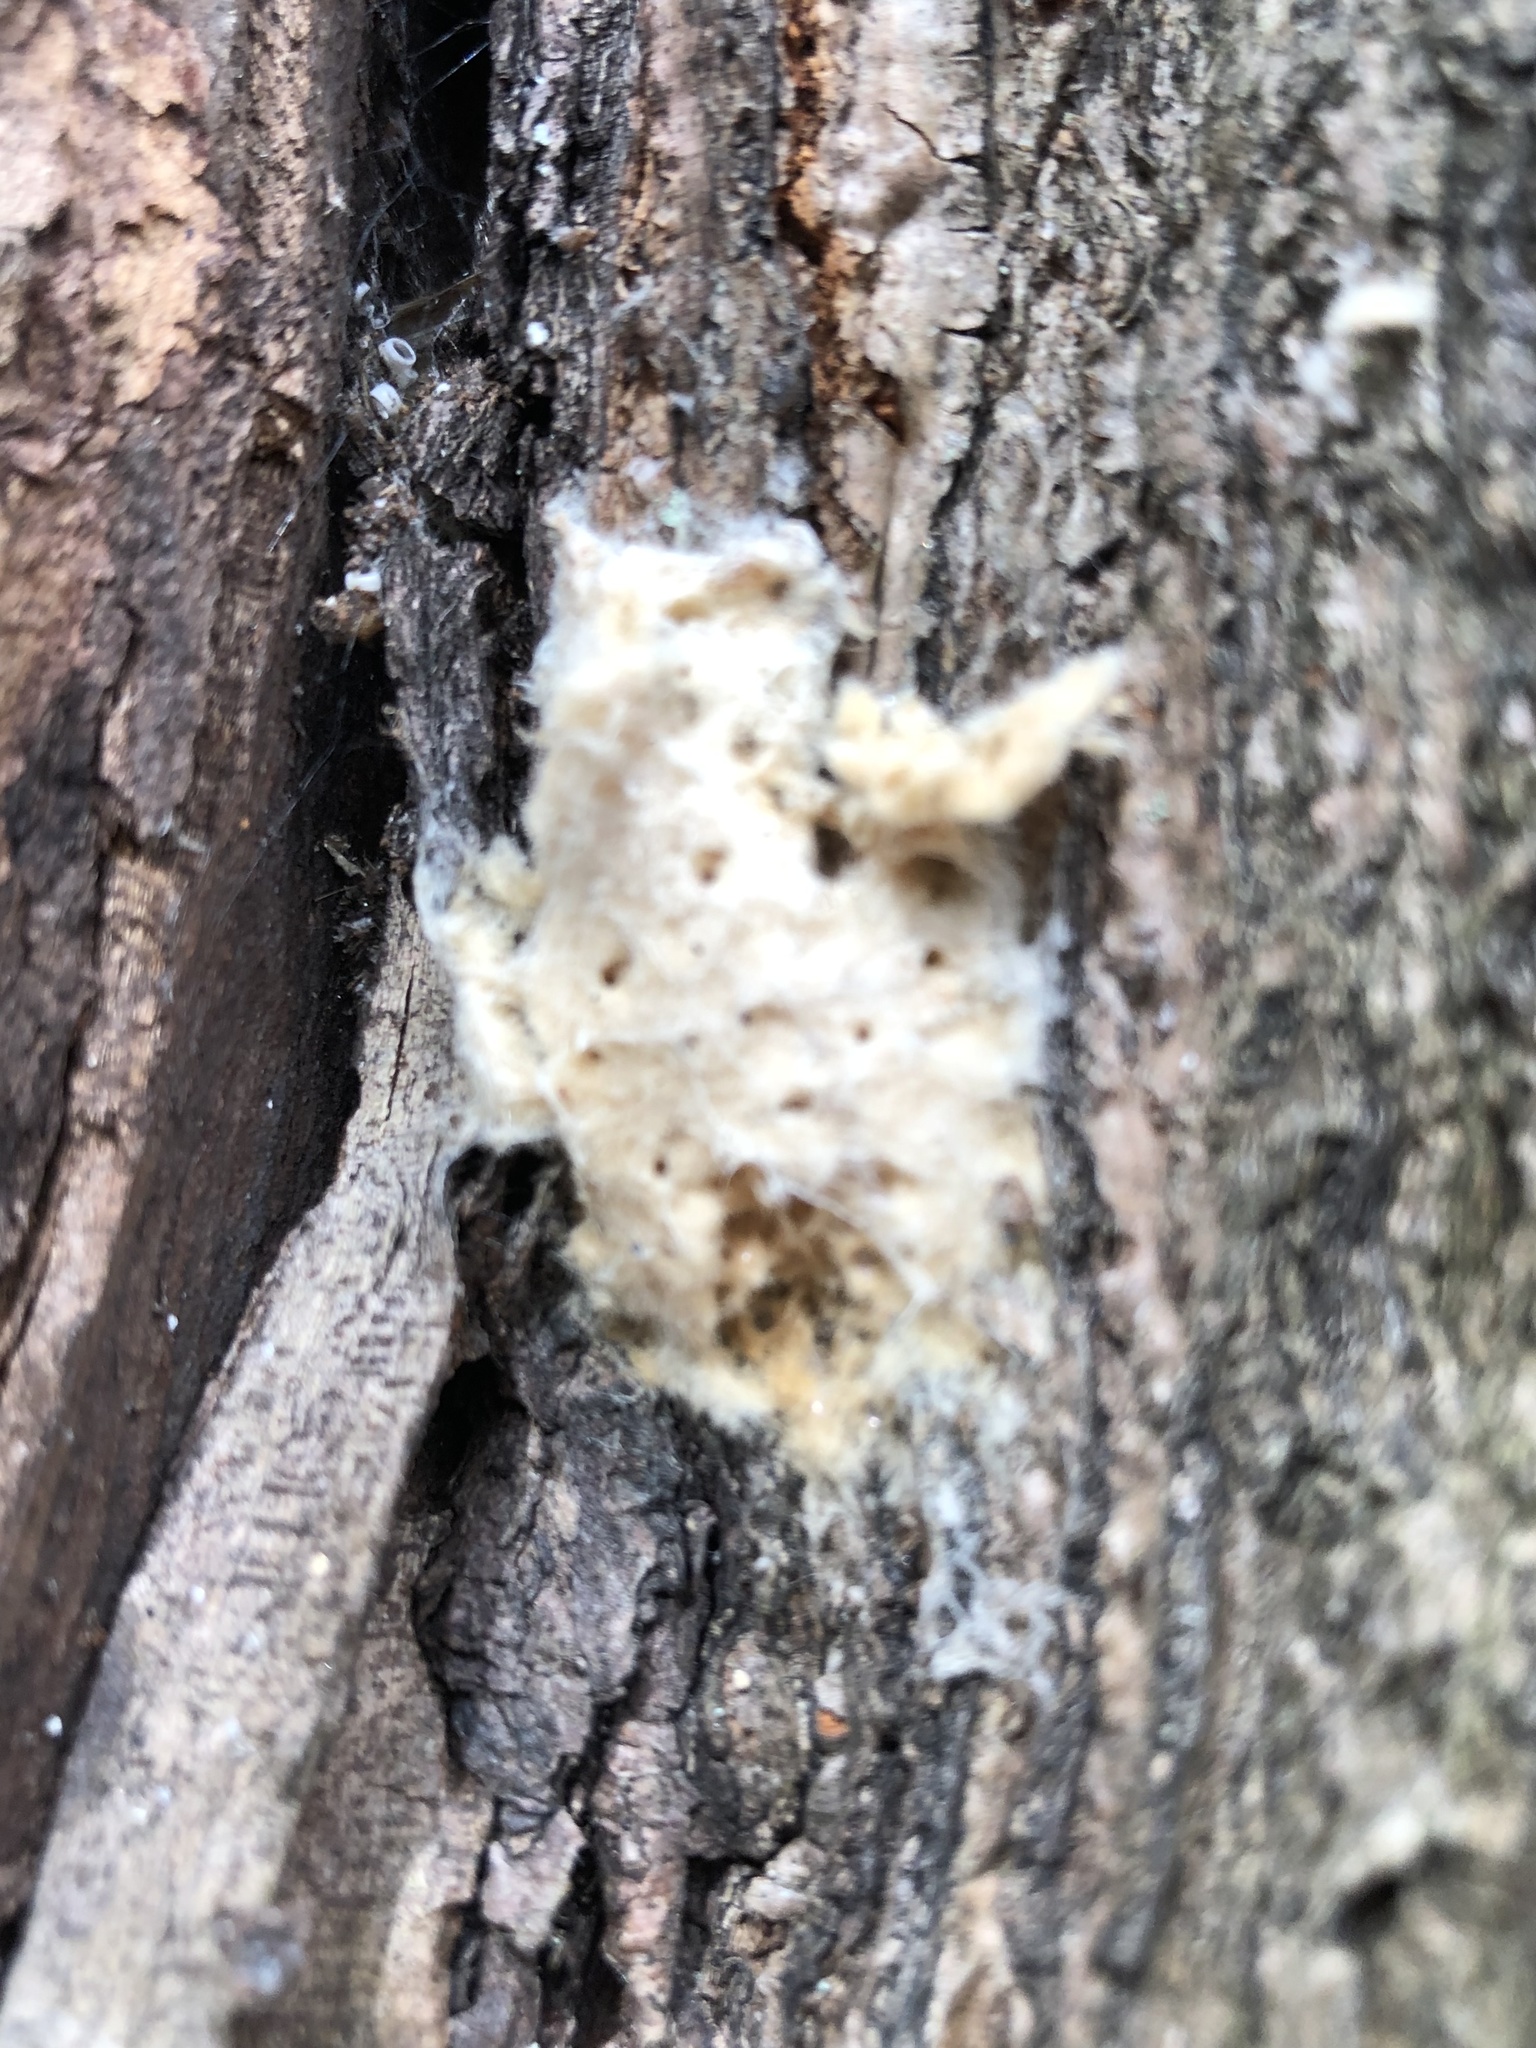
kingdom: Animalia
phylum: Arthropoda
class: Insecta
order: Lepidoptera
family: Erebidae
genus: Lymantria
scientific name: Lymantria dispar
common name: Gypsy moth
